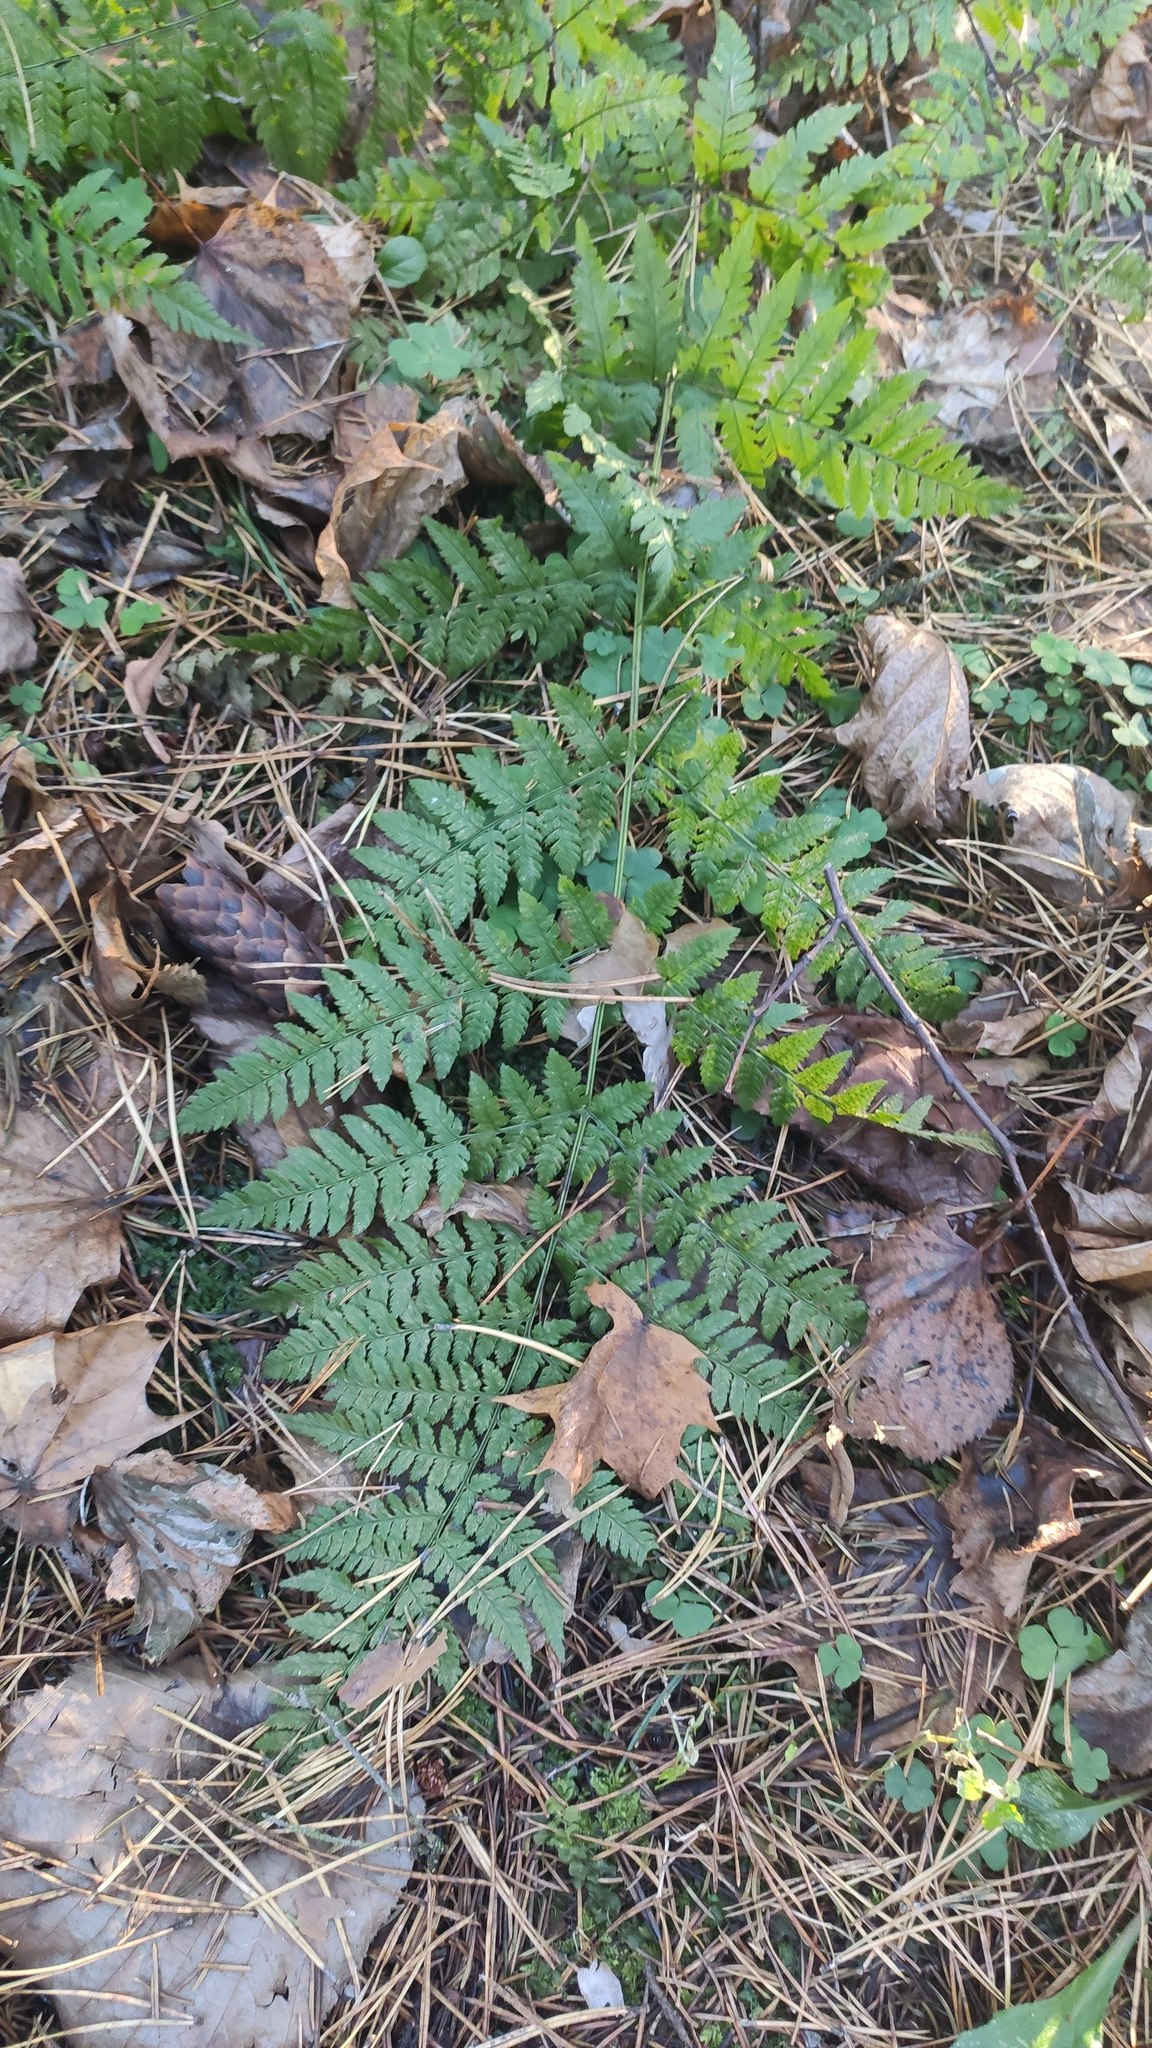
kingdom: Plantae
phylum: Tracheophyta
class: Polypodiopsida
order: Polypodiales
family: Dryopteridaceae
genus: Dryopteris
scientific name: Dryopteris carthusiana
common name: Narrow buckler-fern
